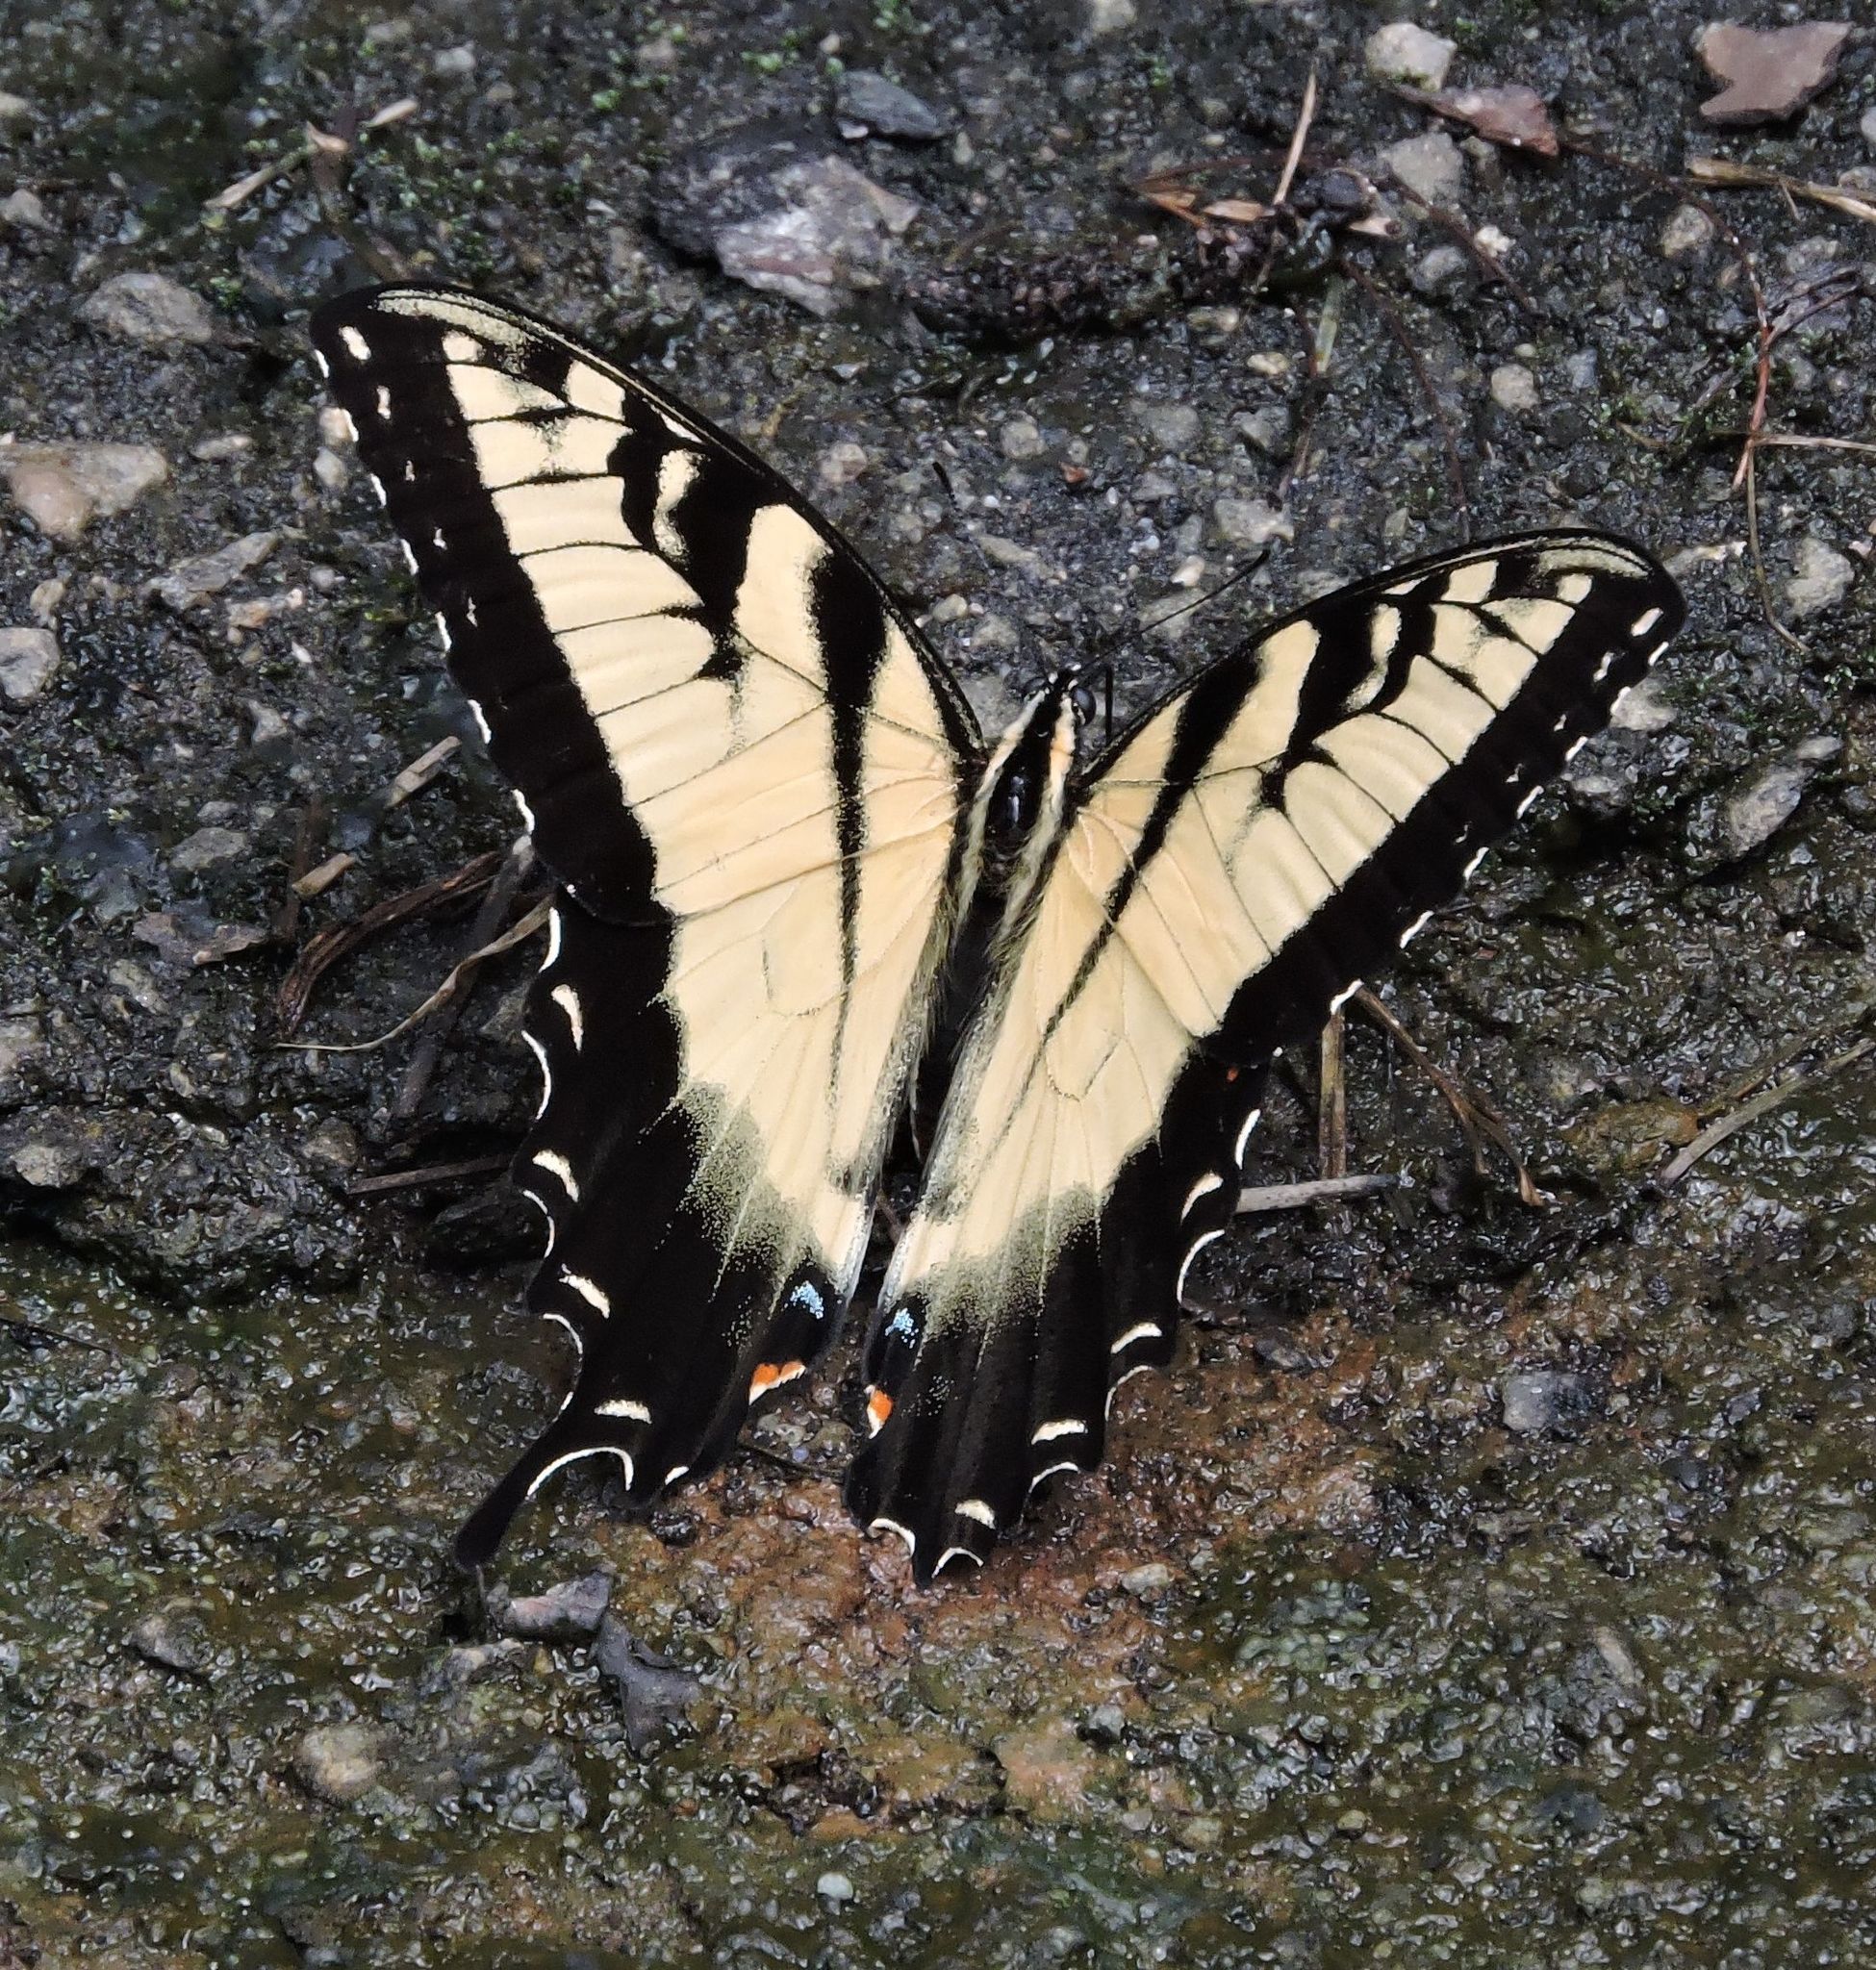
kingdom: Animalia
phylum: Arthropoda
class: Insecta
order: Lepidoptera
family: Papilionidae
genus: Papilio
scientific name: Papilio glaucus
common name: Tiger swallowtail
